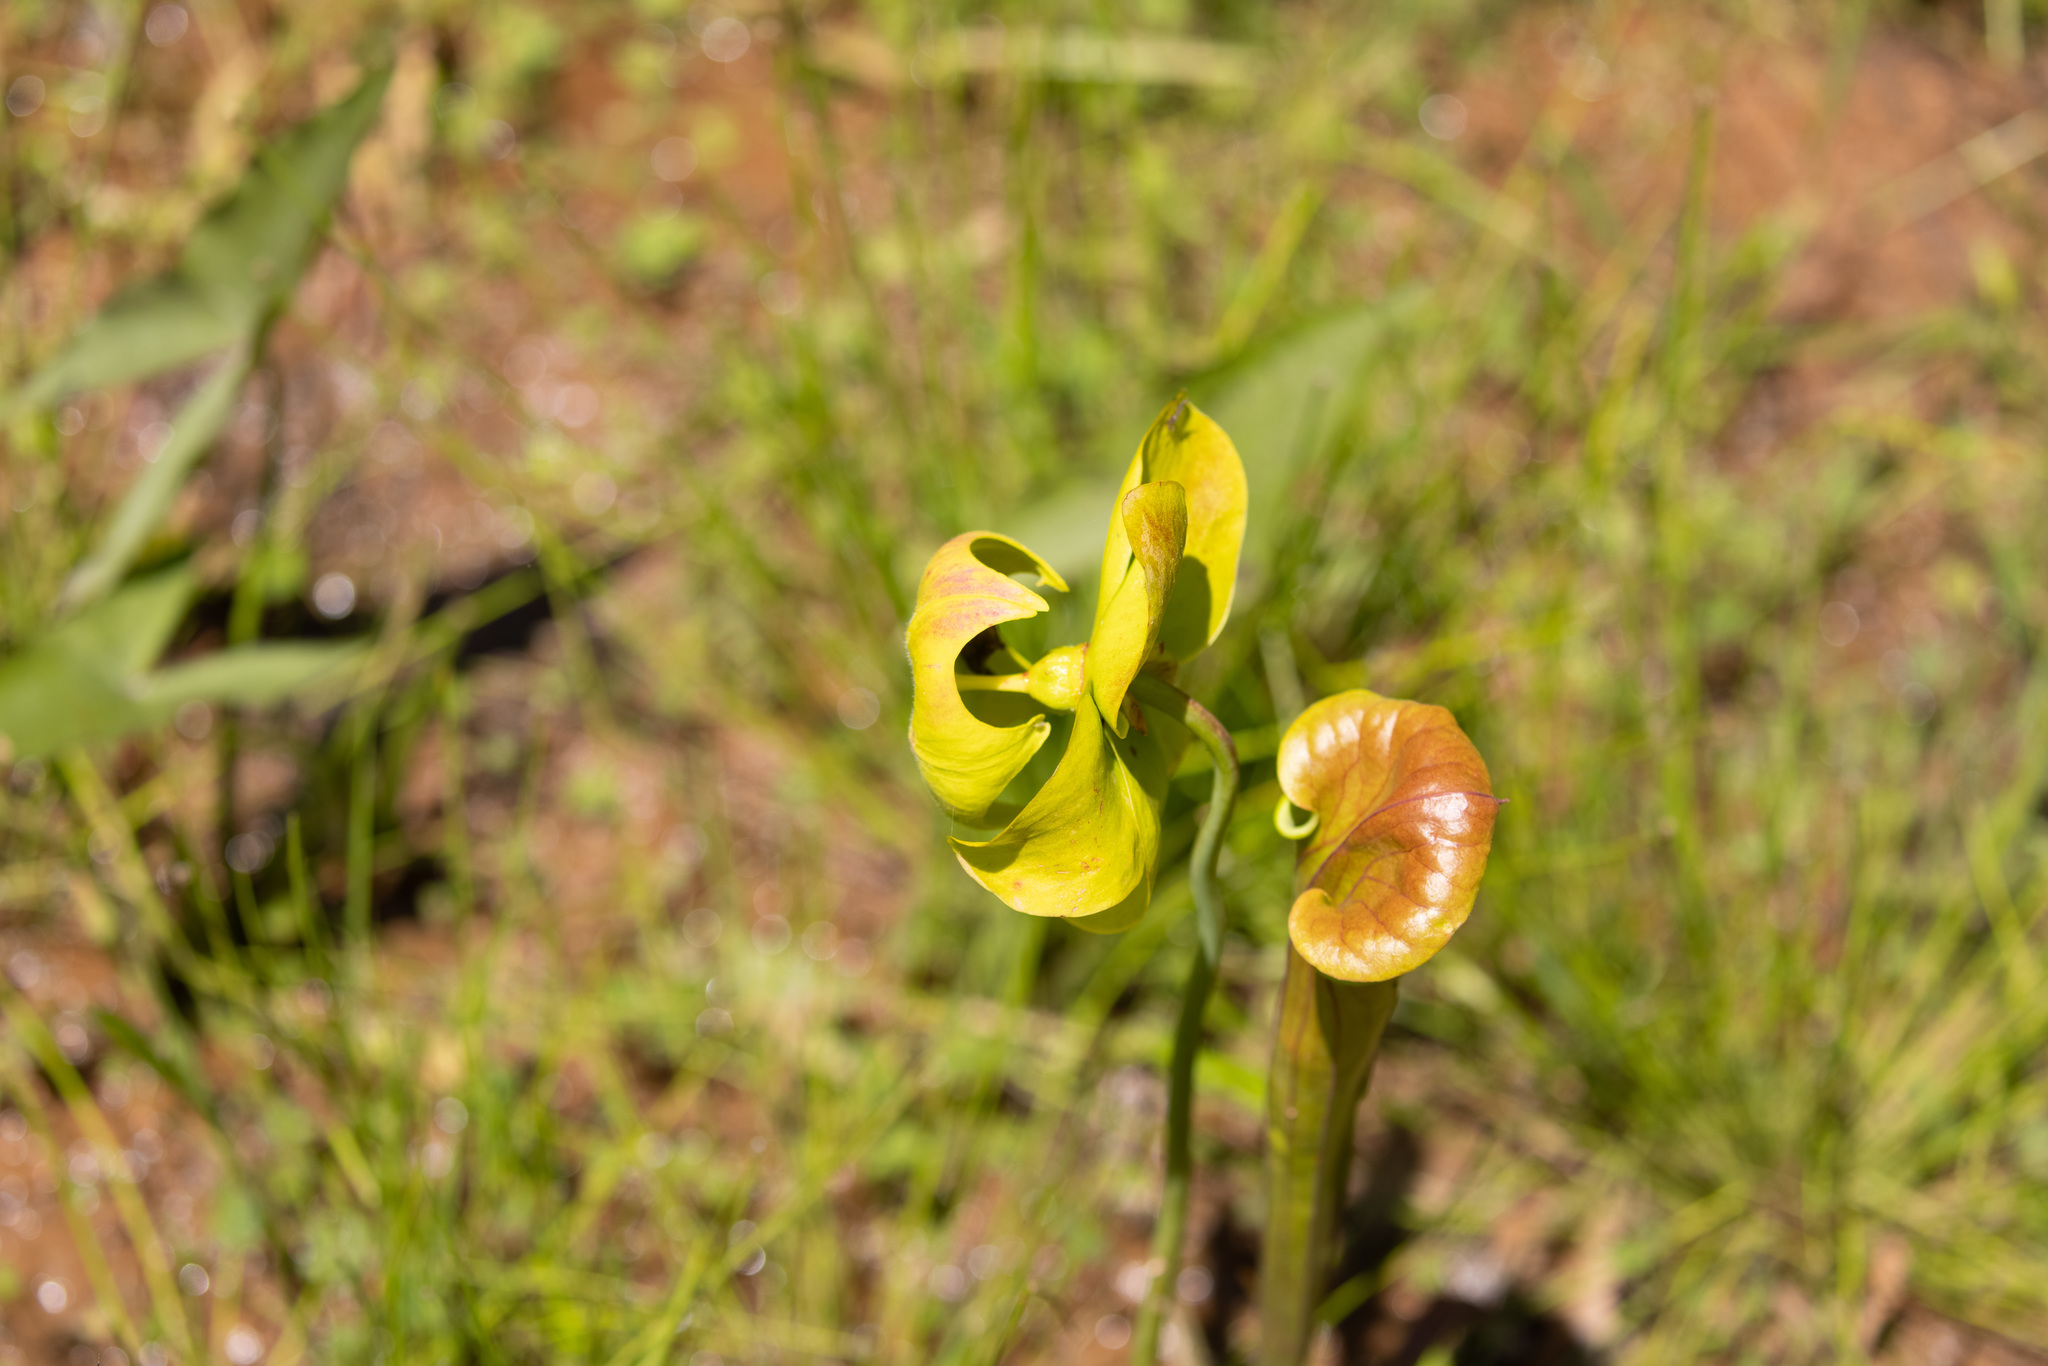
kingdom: Plantae
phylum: Tracheophyta
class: Magnoliopsida
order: Ericales
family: Sarraceniaceae
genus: Sarracenia
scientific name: Sarracenia flava
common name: Trumpets
